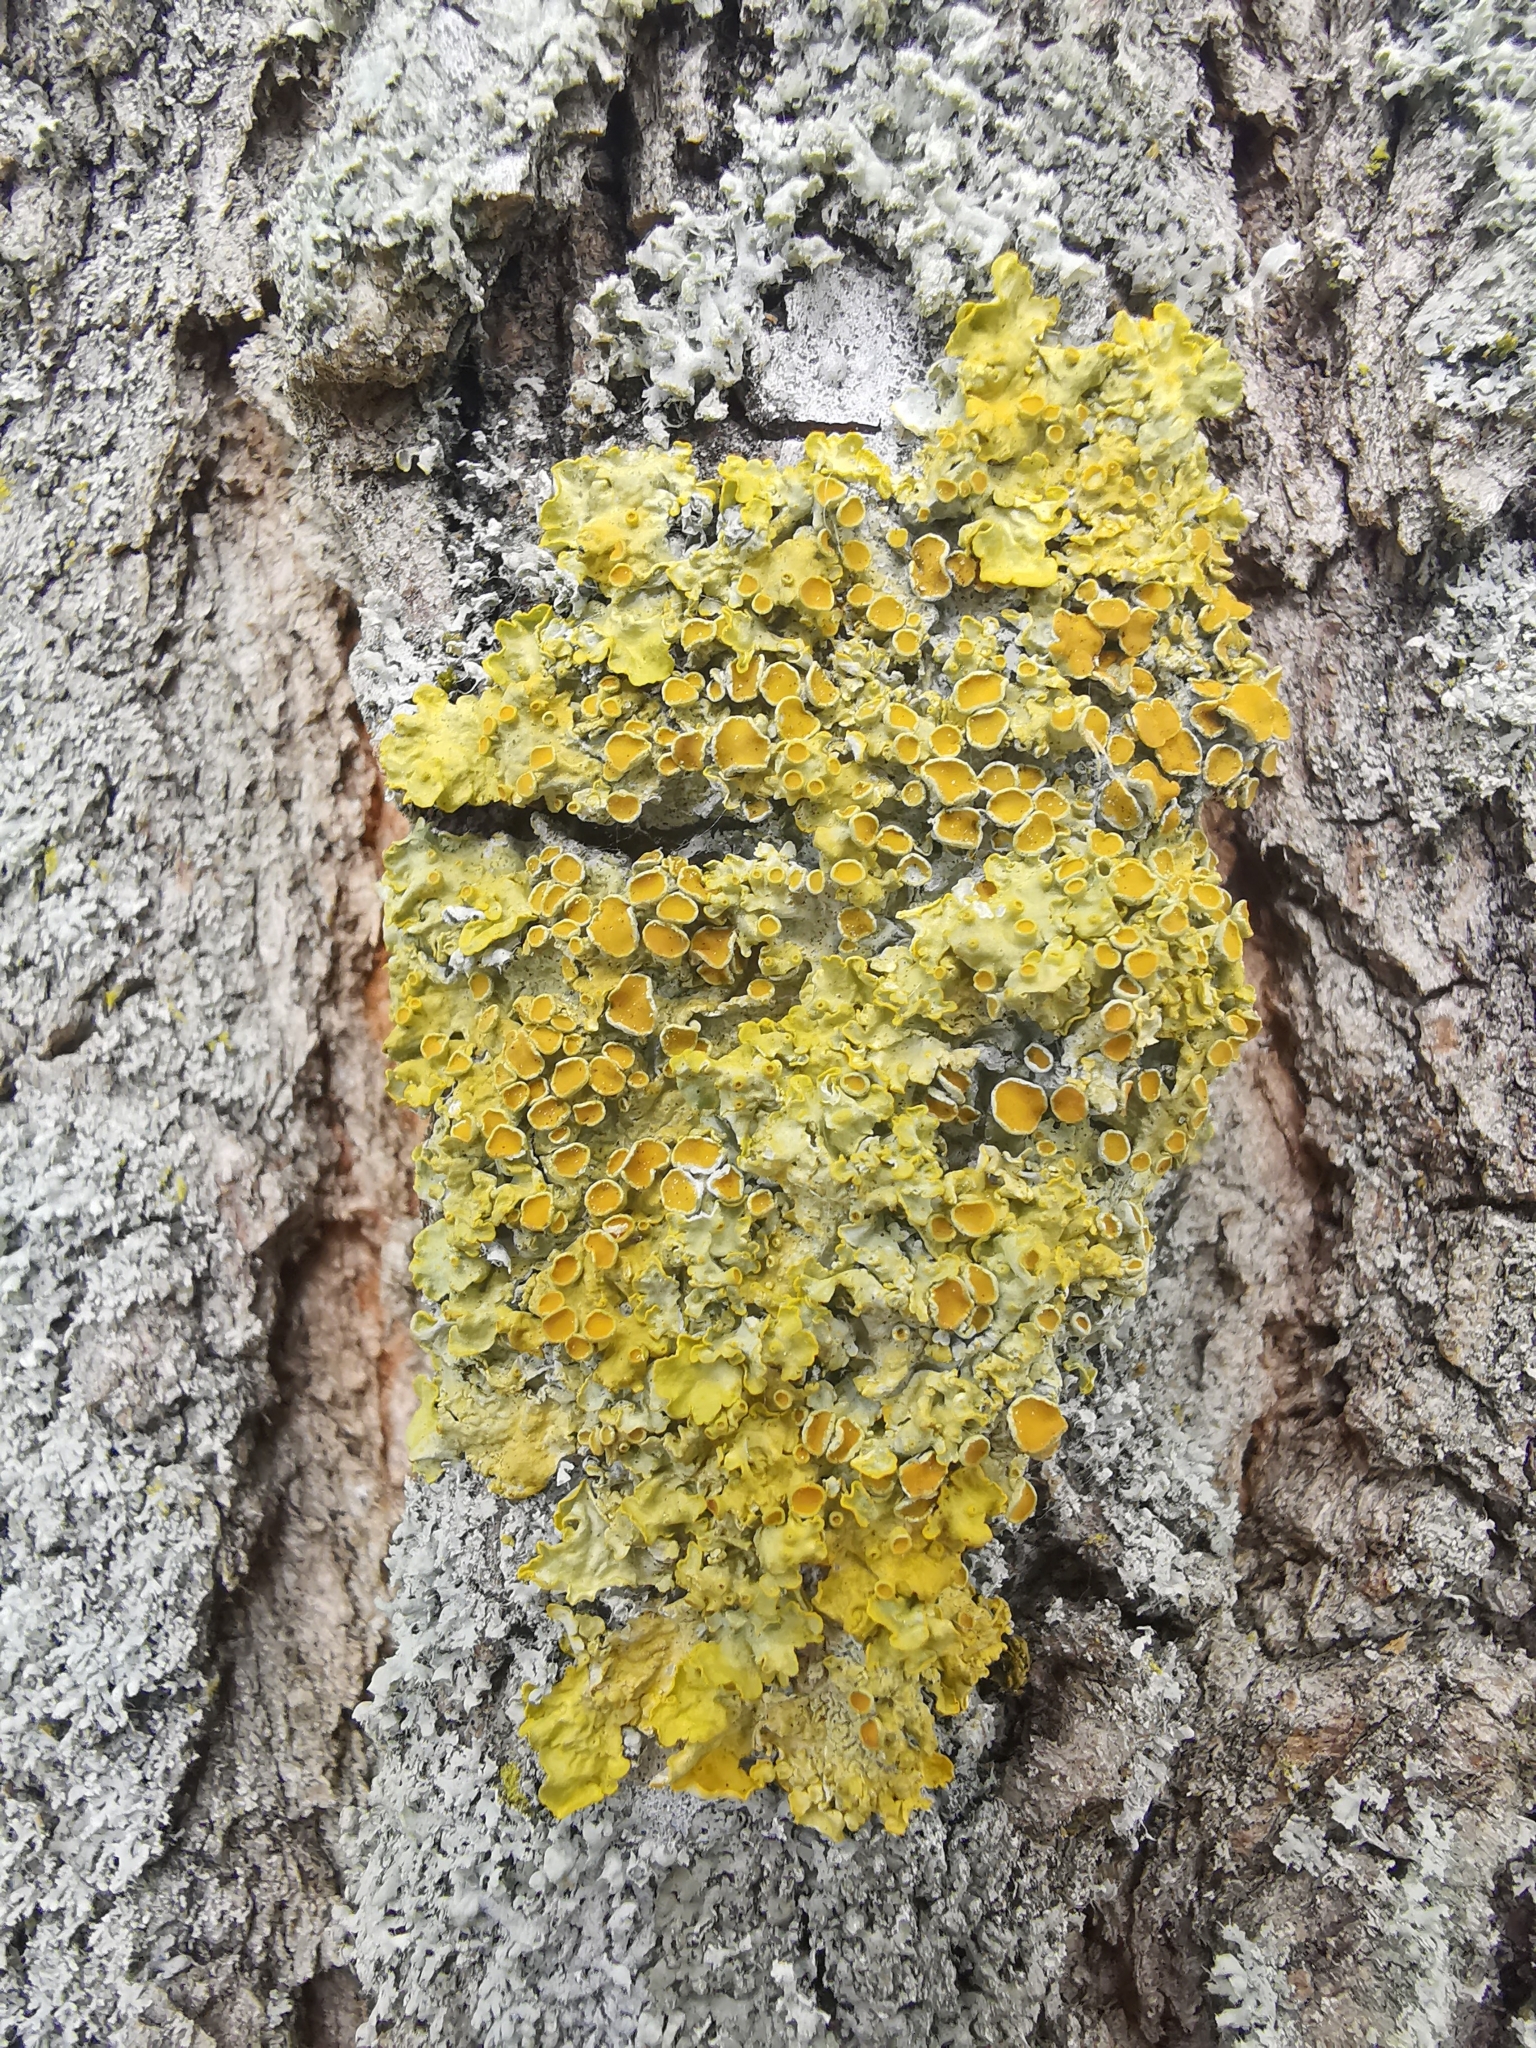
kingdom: Fungi
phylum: Ascomycota
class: Lecanoromycetes
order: Teloschistales
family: Teloschistaceae
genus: Xanthoria
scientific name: Xanthoria parietina
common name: Common orange lichen
